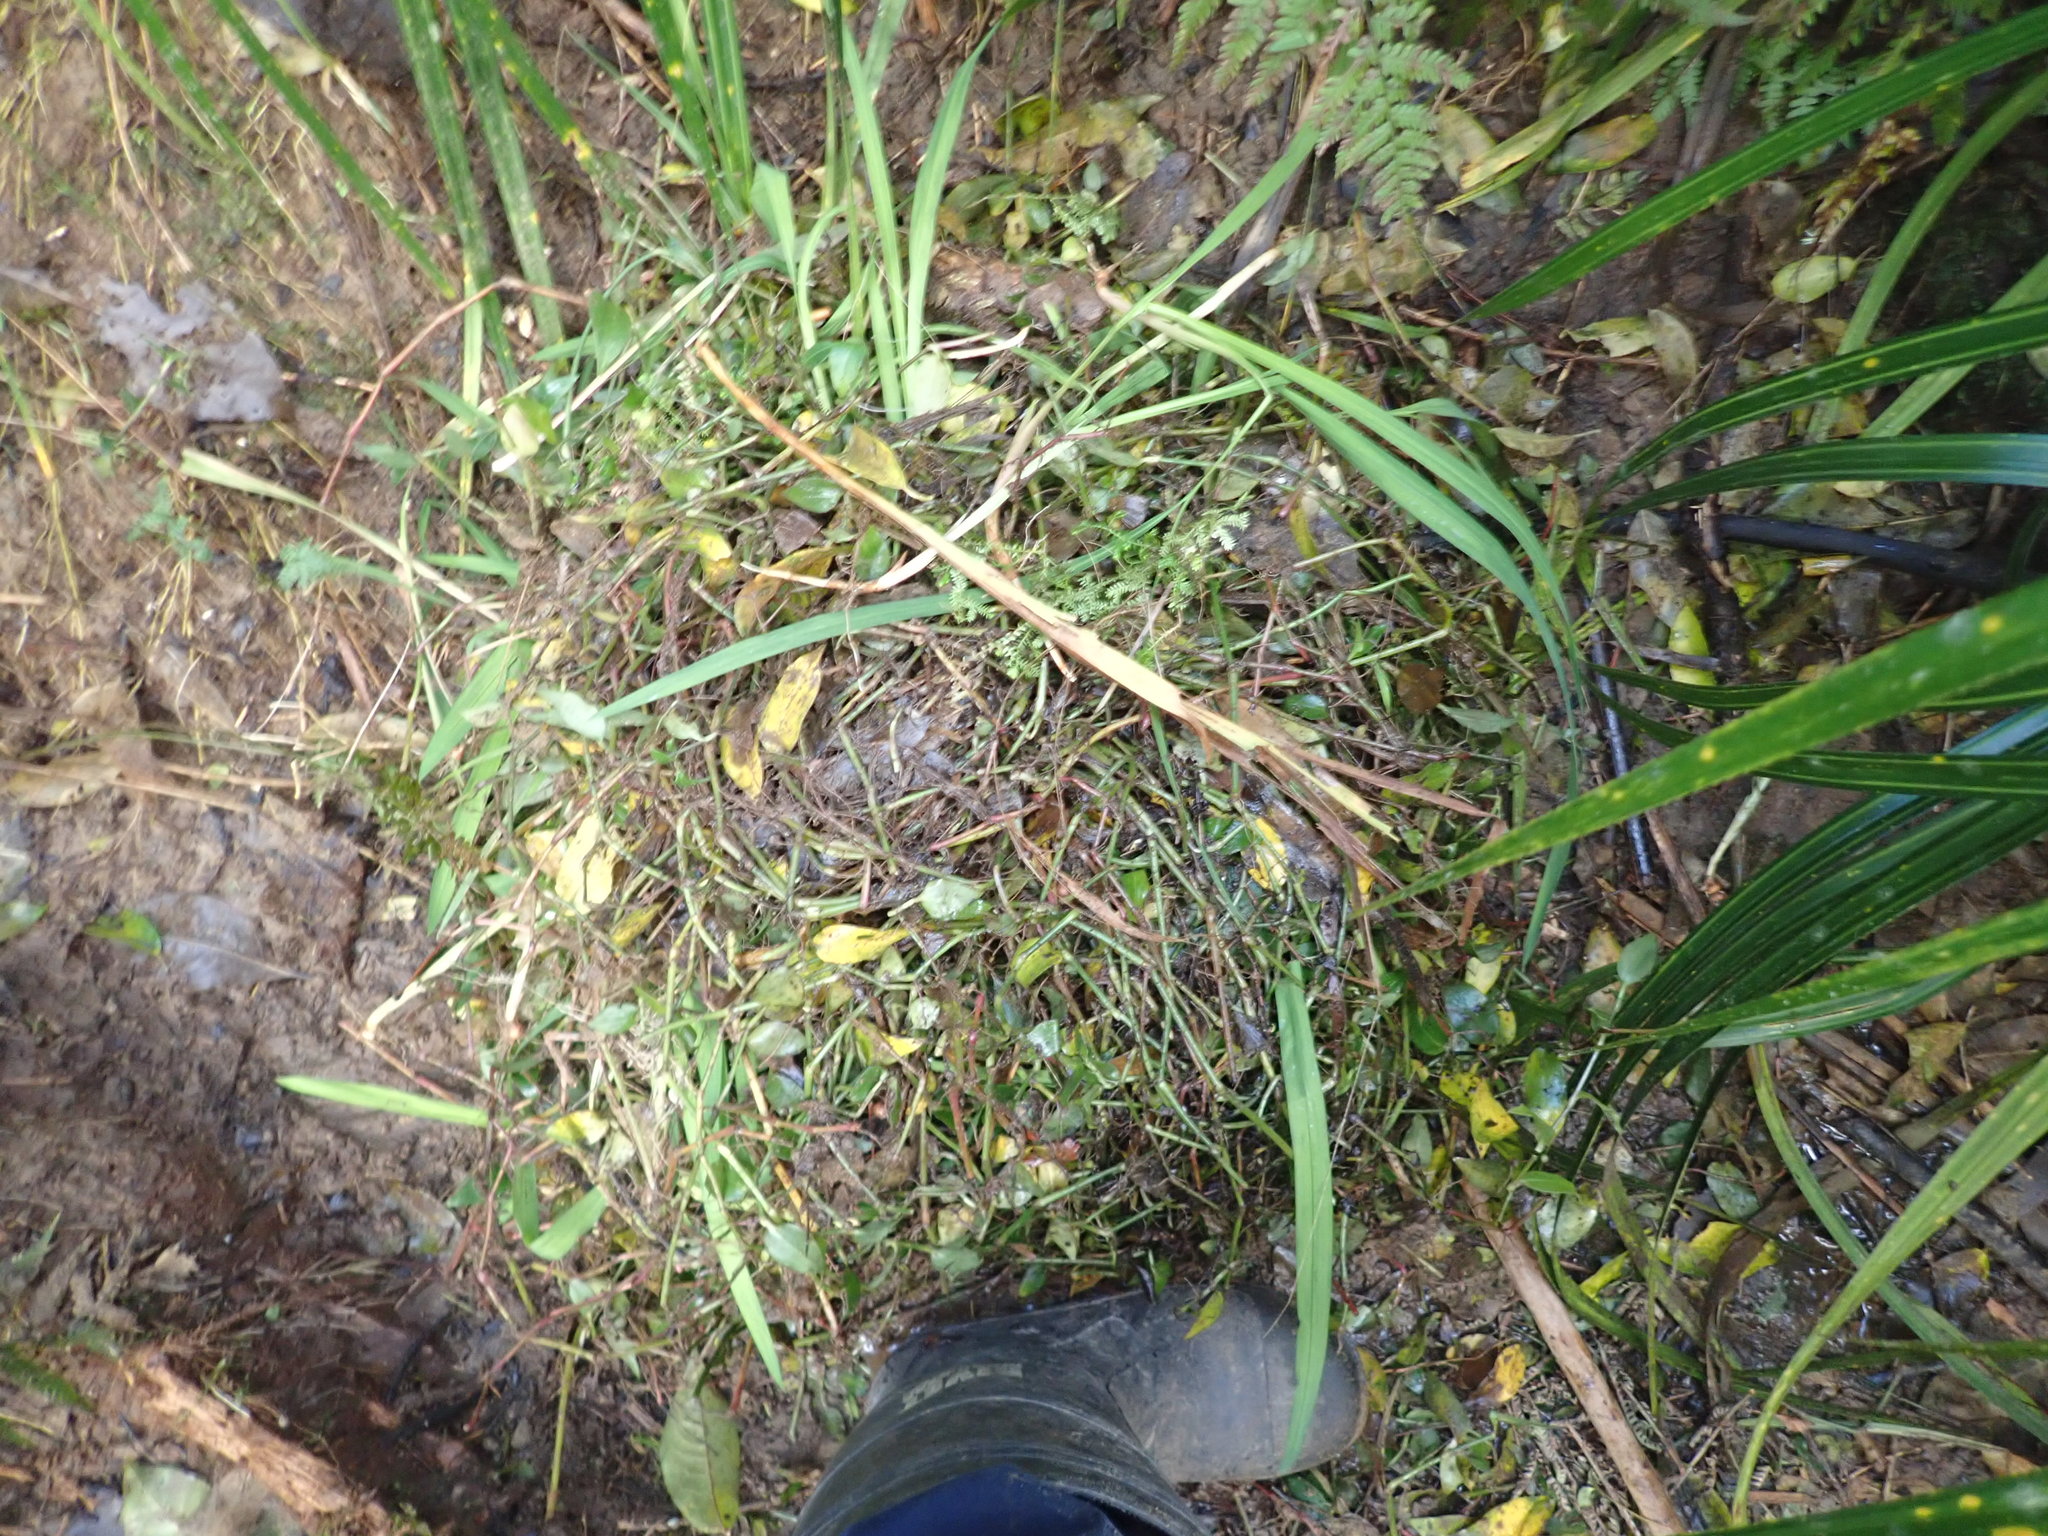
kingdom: Plantae
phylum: Tracheophyta
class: Liliopsida
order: Commelinales
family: Commelinaceae
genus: Tradescantia
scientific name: Tradescantia fluminensis
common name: Wandering-jew
